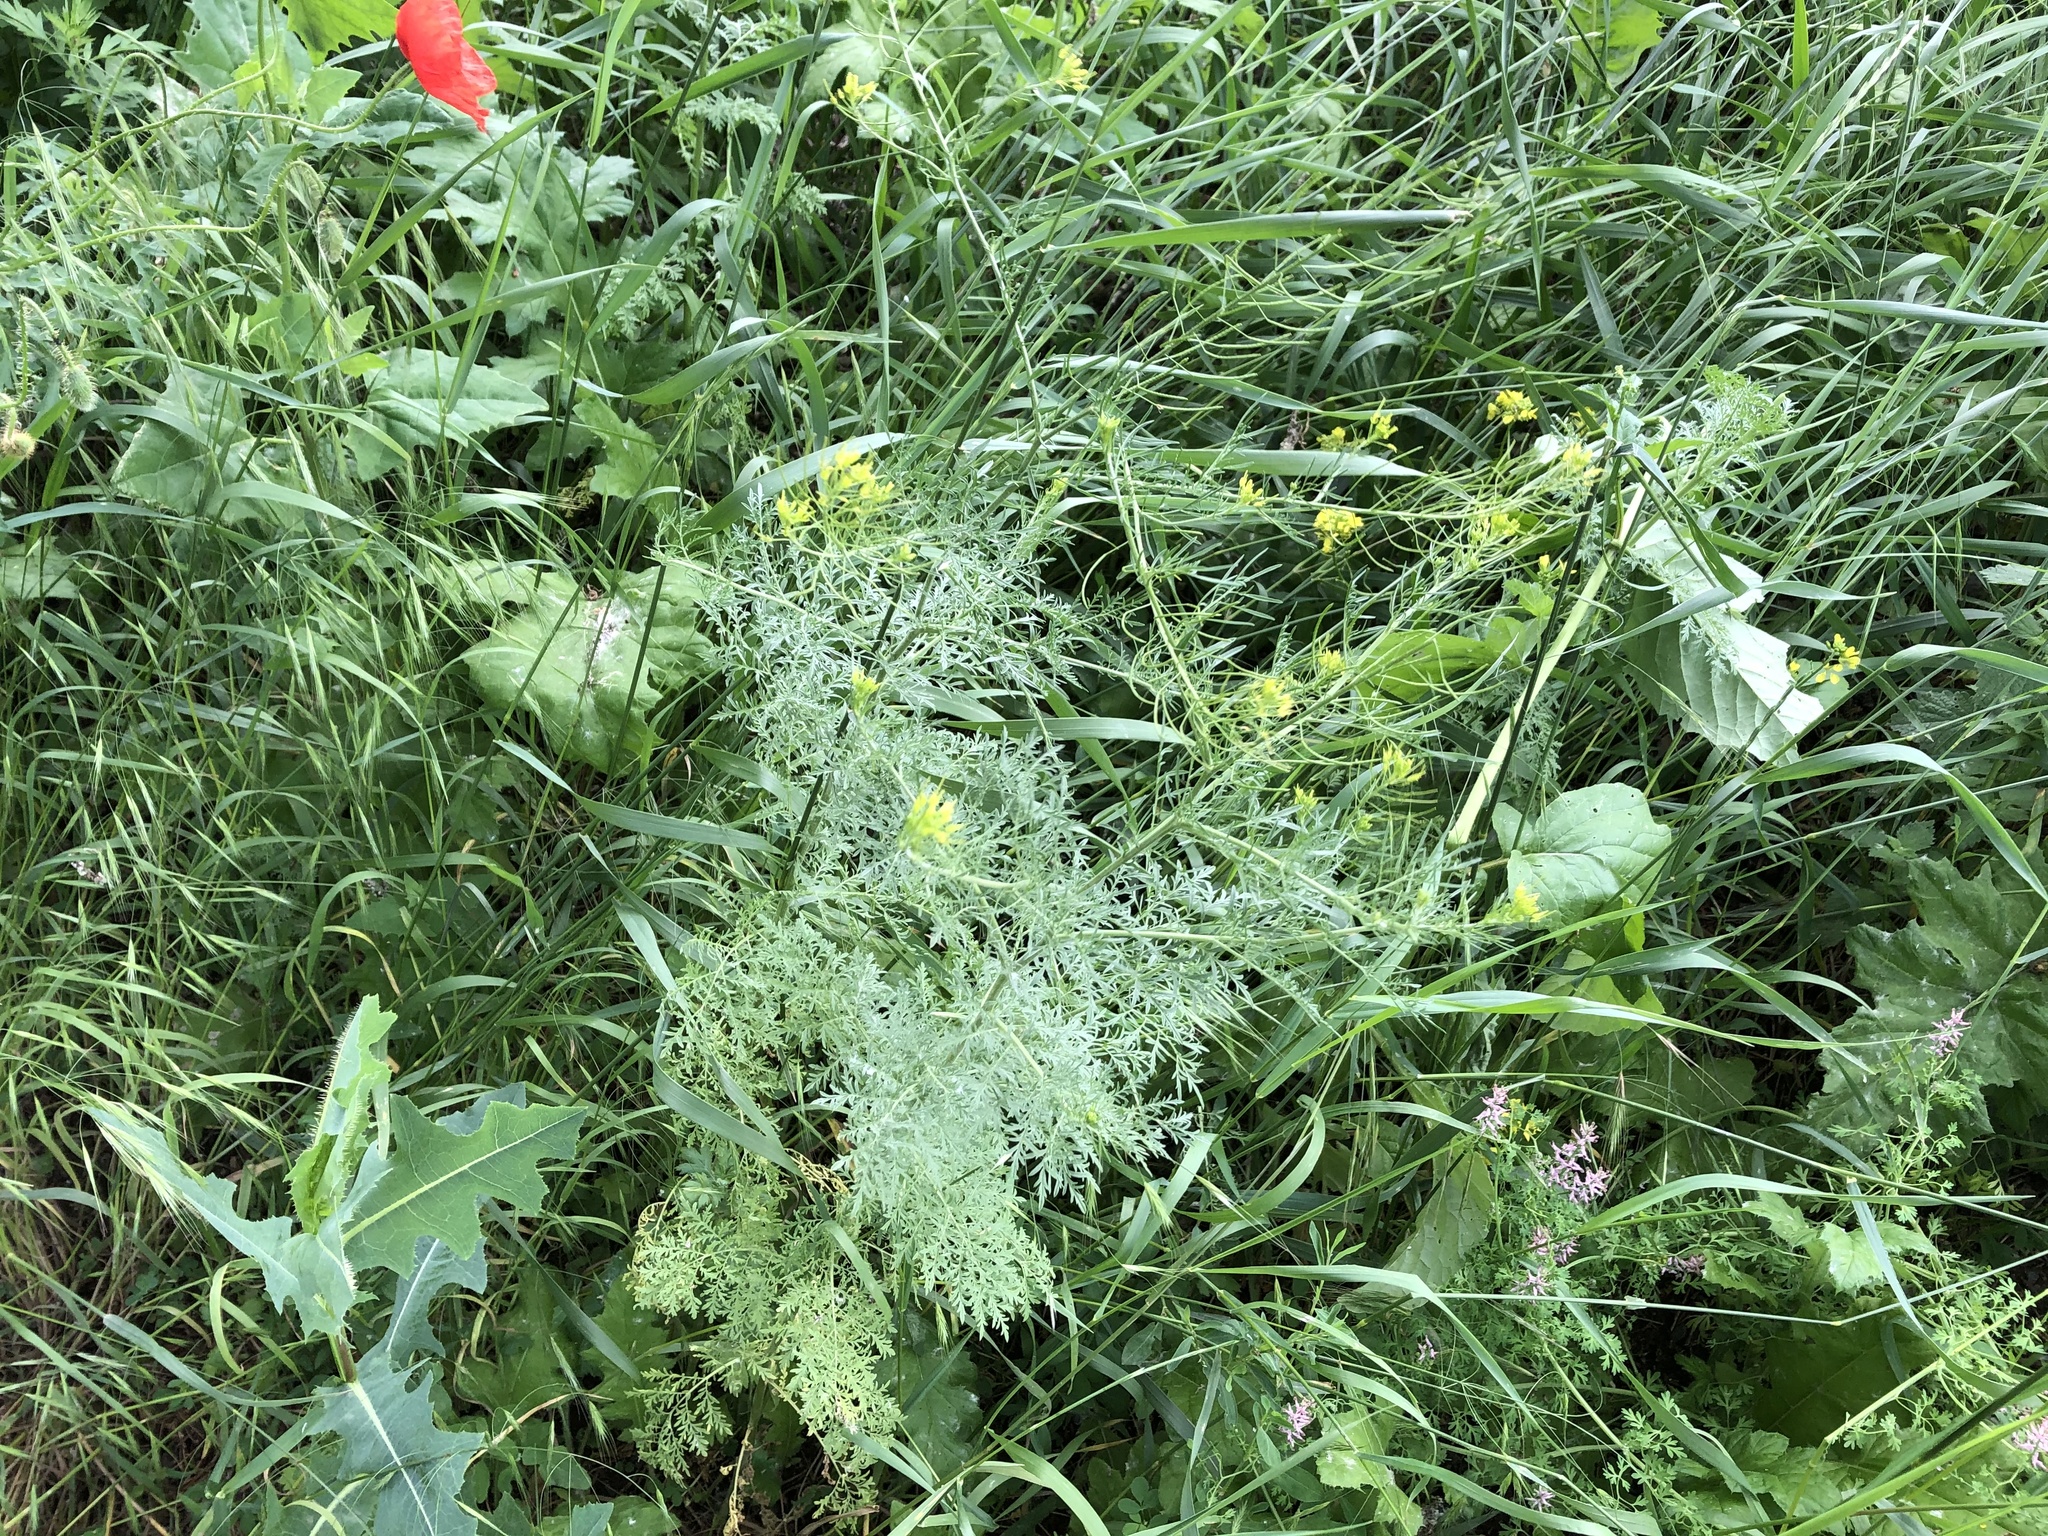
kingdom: Plantae
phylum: Tracheophyta
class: Magnoliopsida
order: Brassicales
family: Brassicaceae
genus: Descurainia
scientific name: Descurainia sophia
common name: Flixweed
